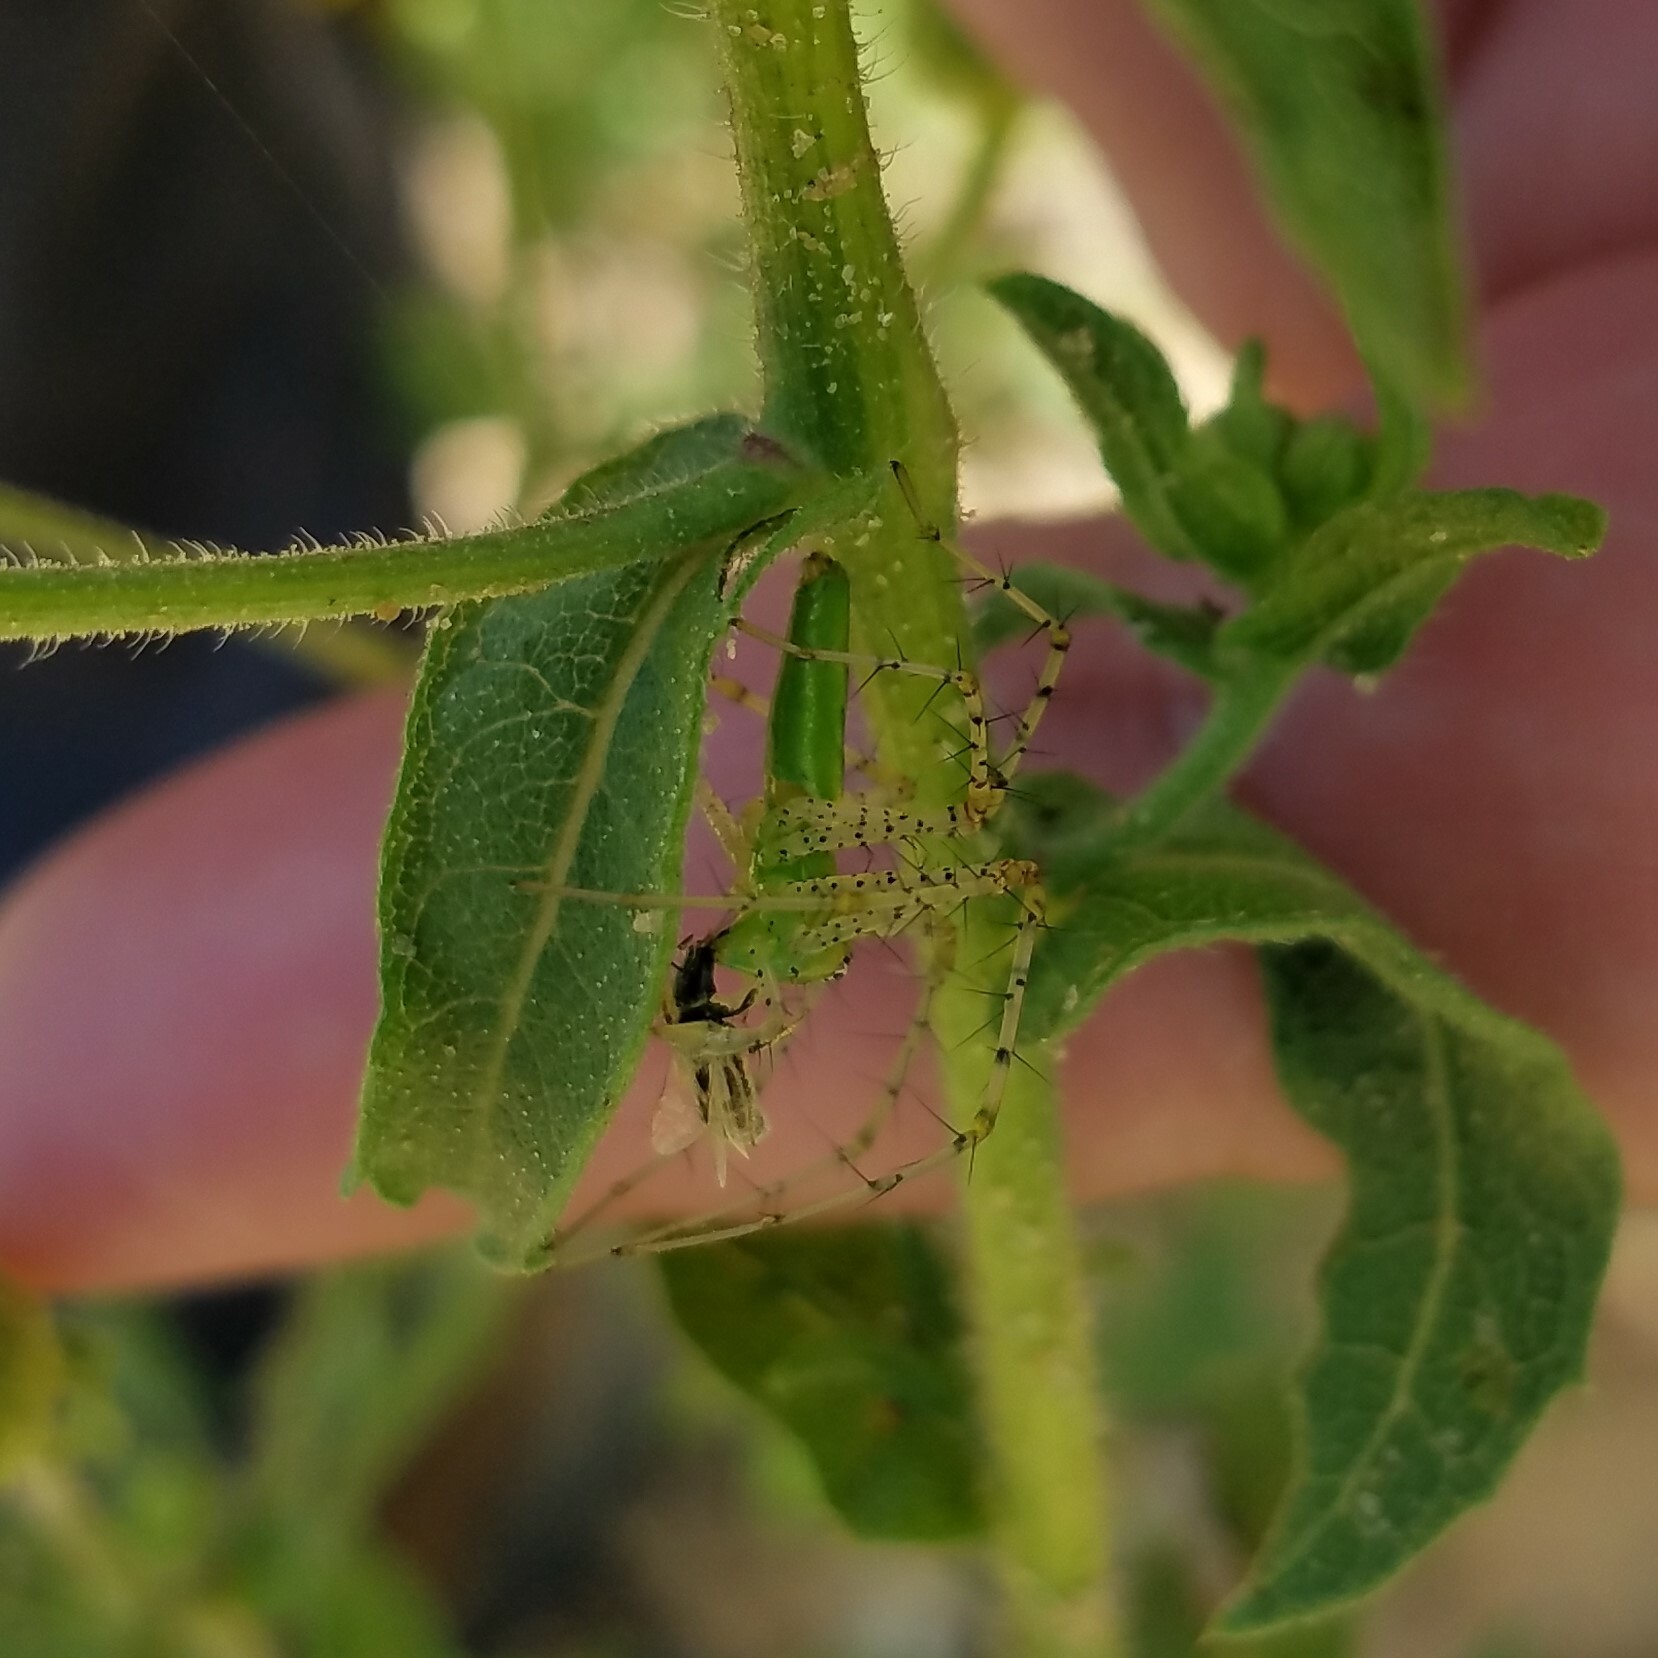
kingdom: Animalia
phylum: Arthropoda
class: Arachnida
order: Araneae
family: Oxyopidae
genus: Peucetia
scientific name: Peucetia viridans
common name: Lynx spiders
